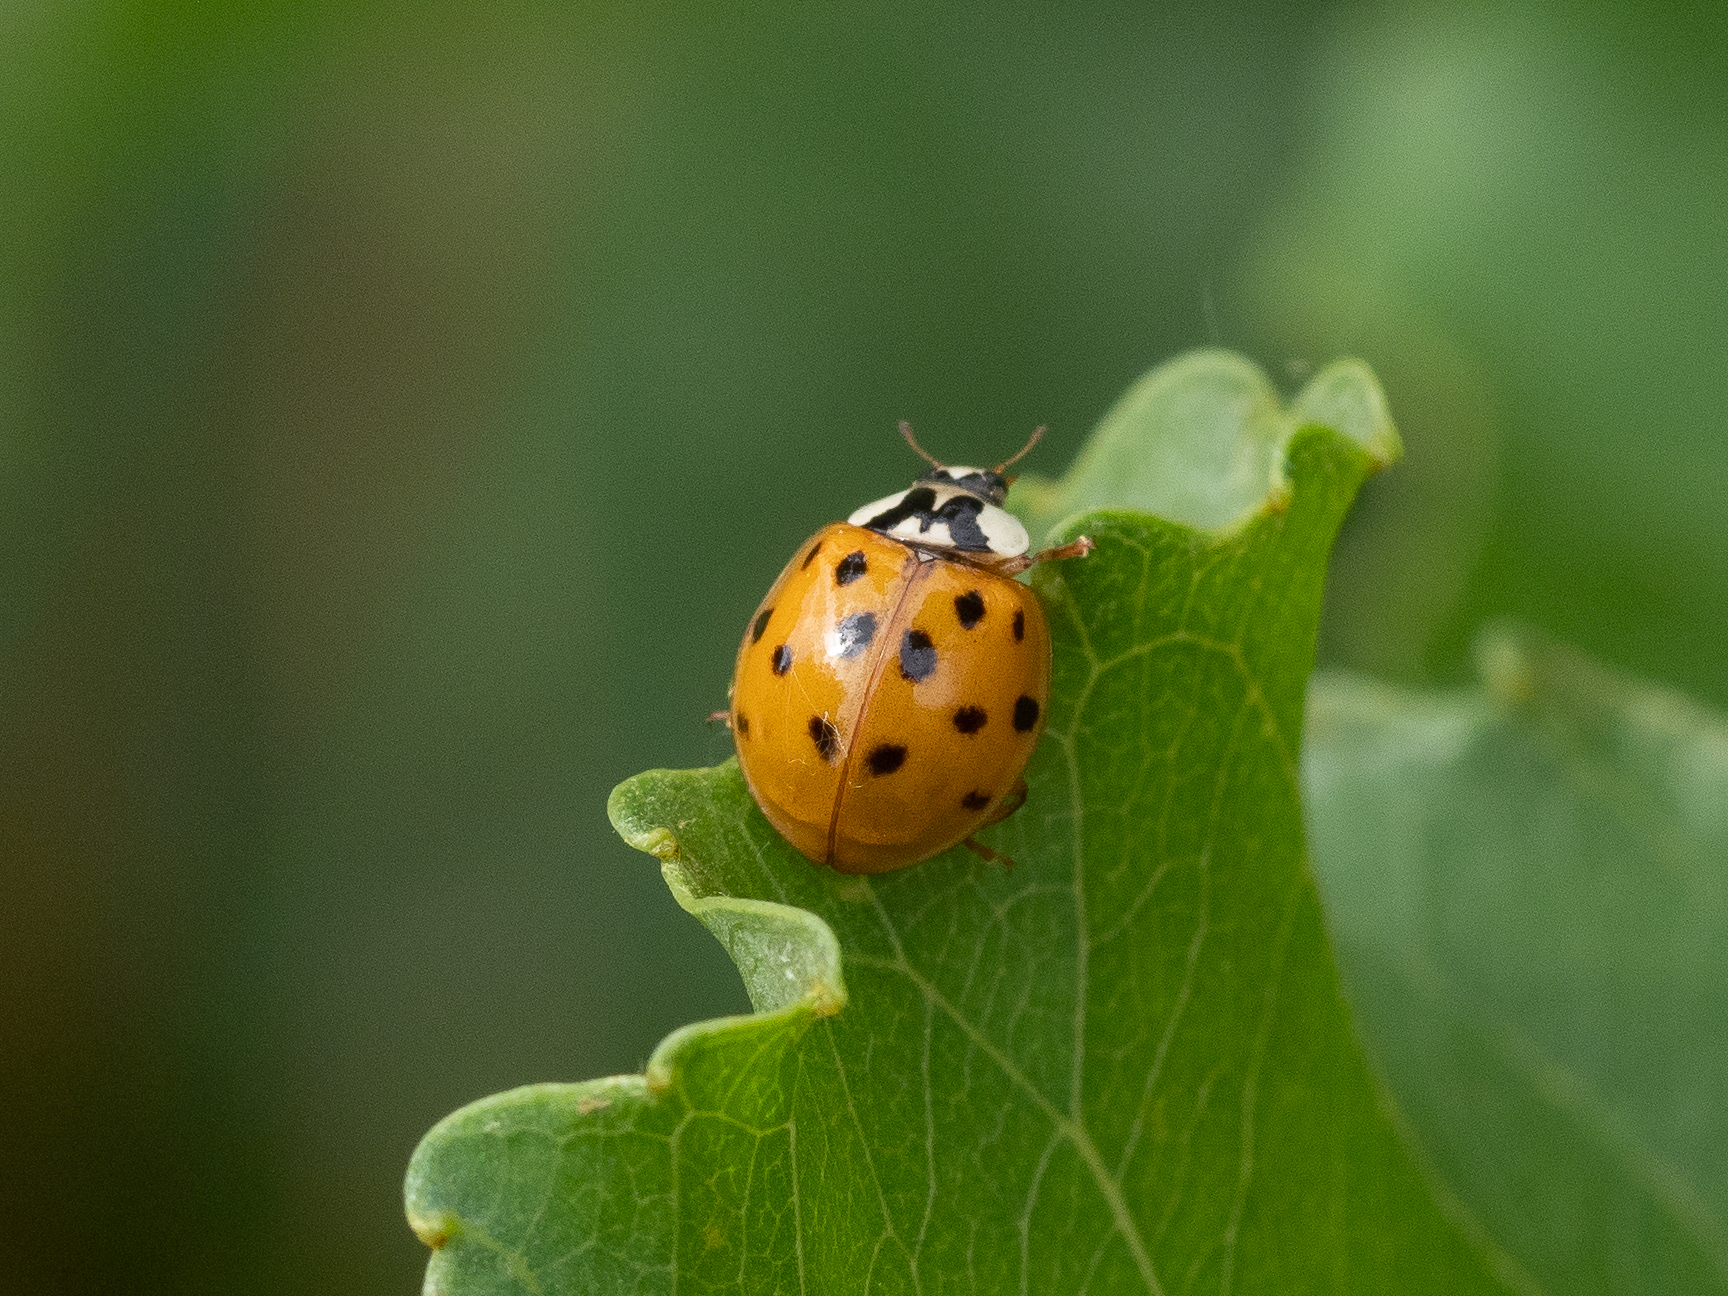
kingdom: Animalia
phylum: Arthropoda
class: Insecta
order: Coleoptera
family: Coccinellidae
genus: Harmonia
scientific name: Harmonia axyridis
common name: Harlequin ladybird
